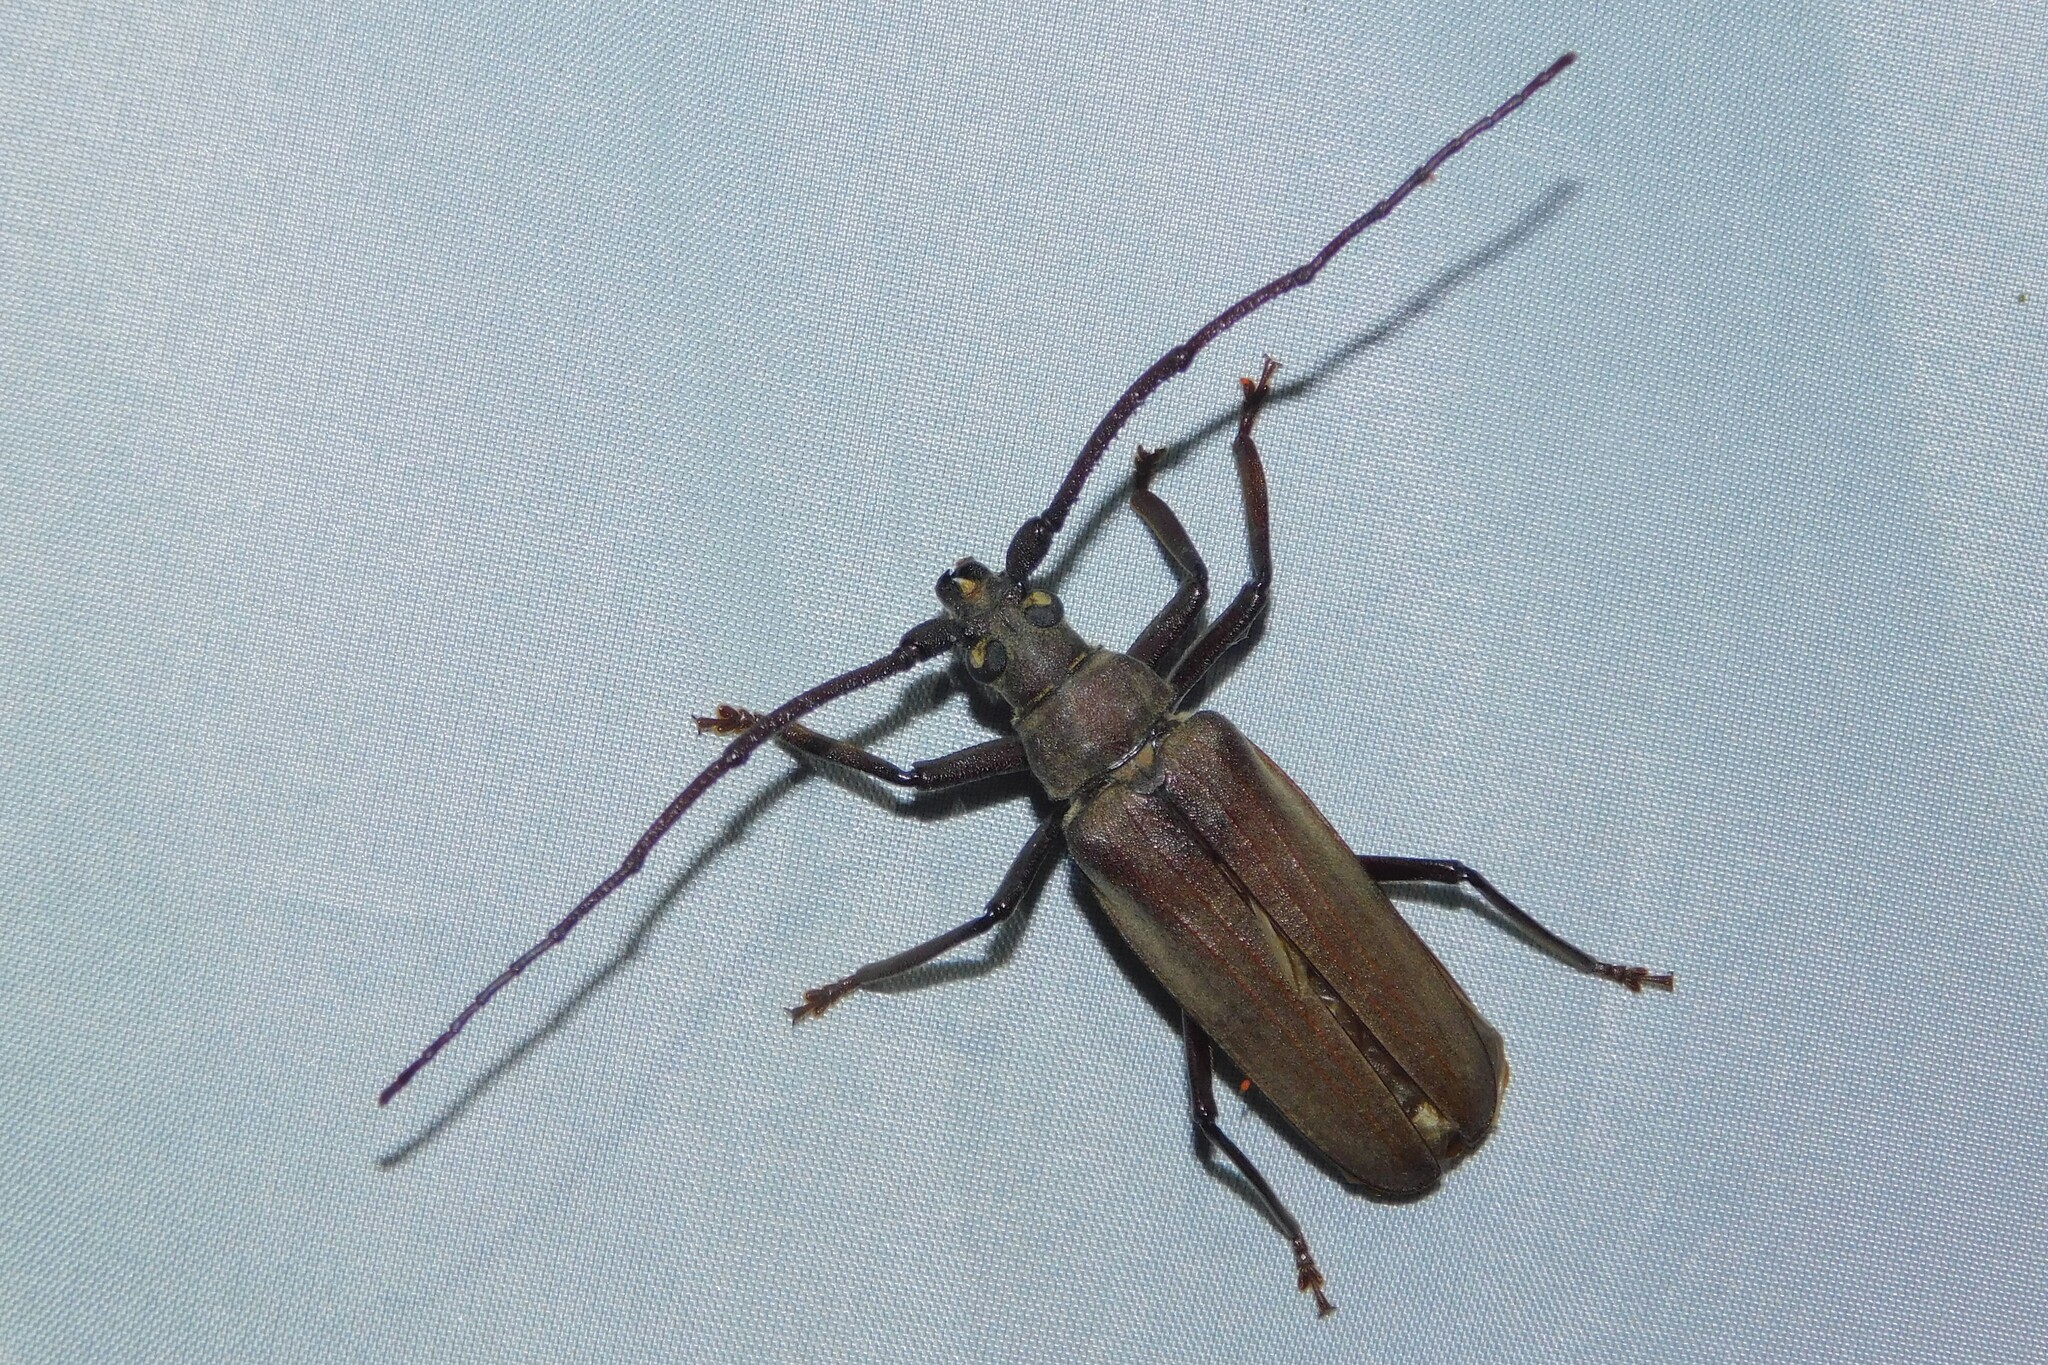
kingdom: Animalia
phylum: Arthropoda
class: Insecta
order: Coleoptera
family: Cerambycidae
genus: Aegosoma
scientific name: Aegosoma scabricorne
